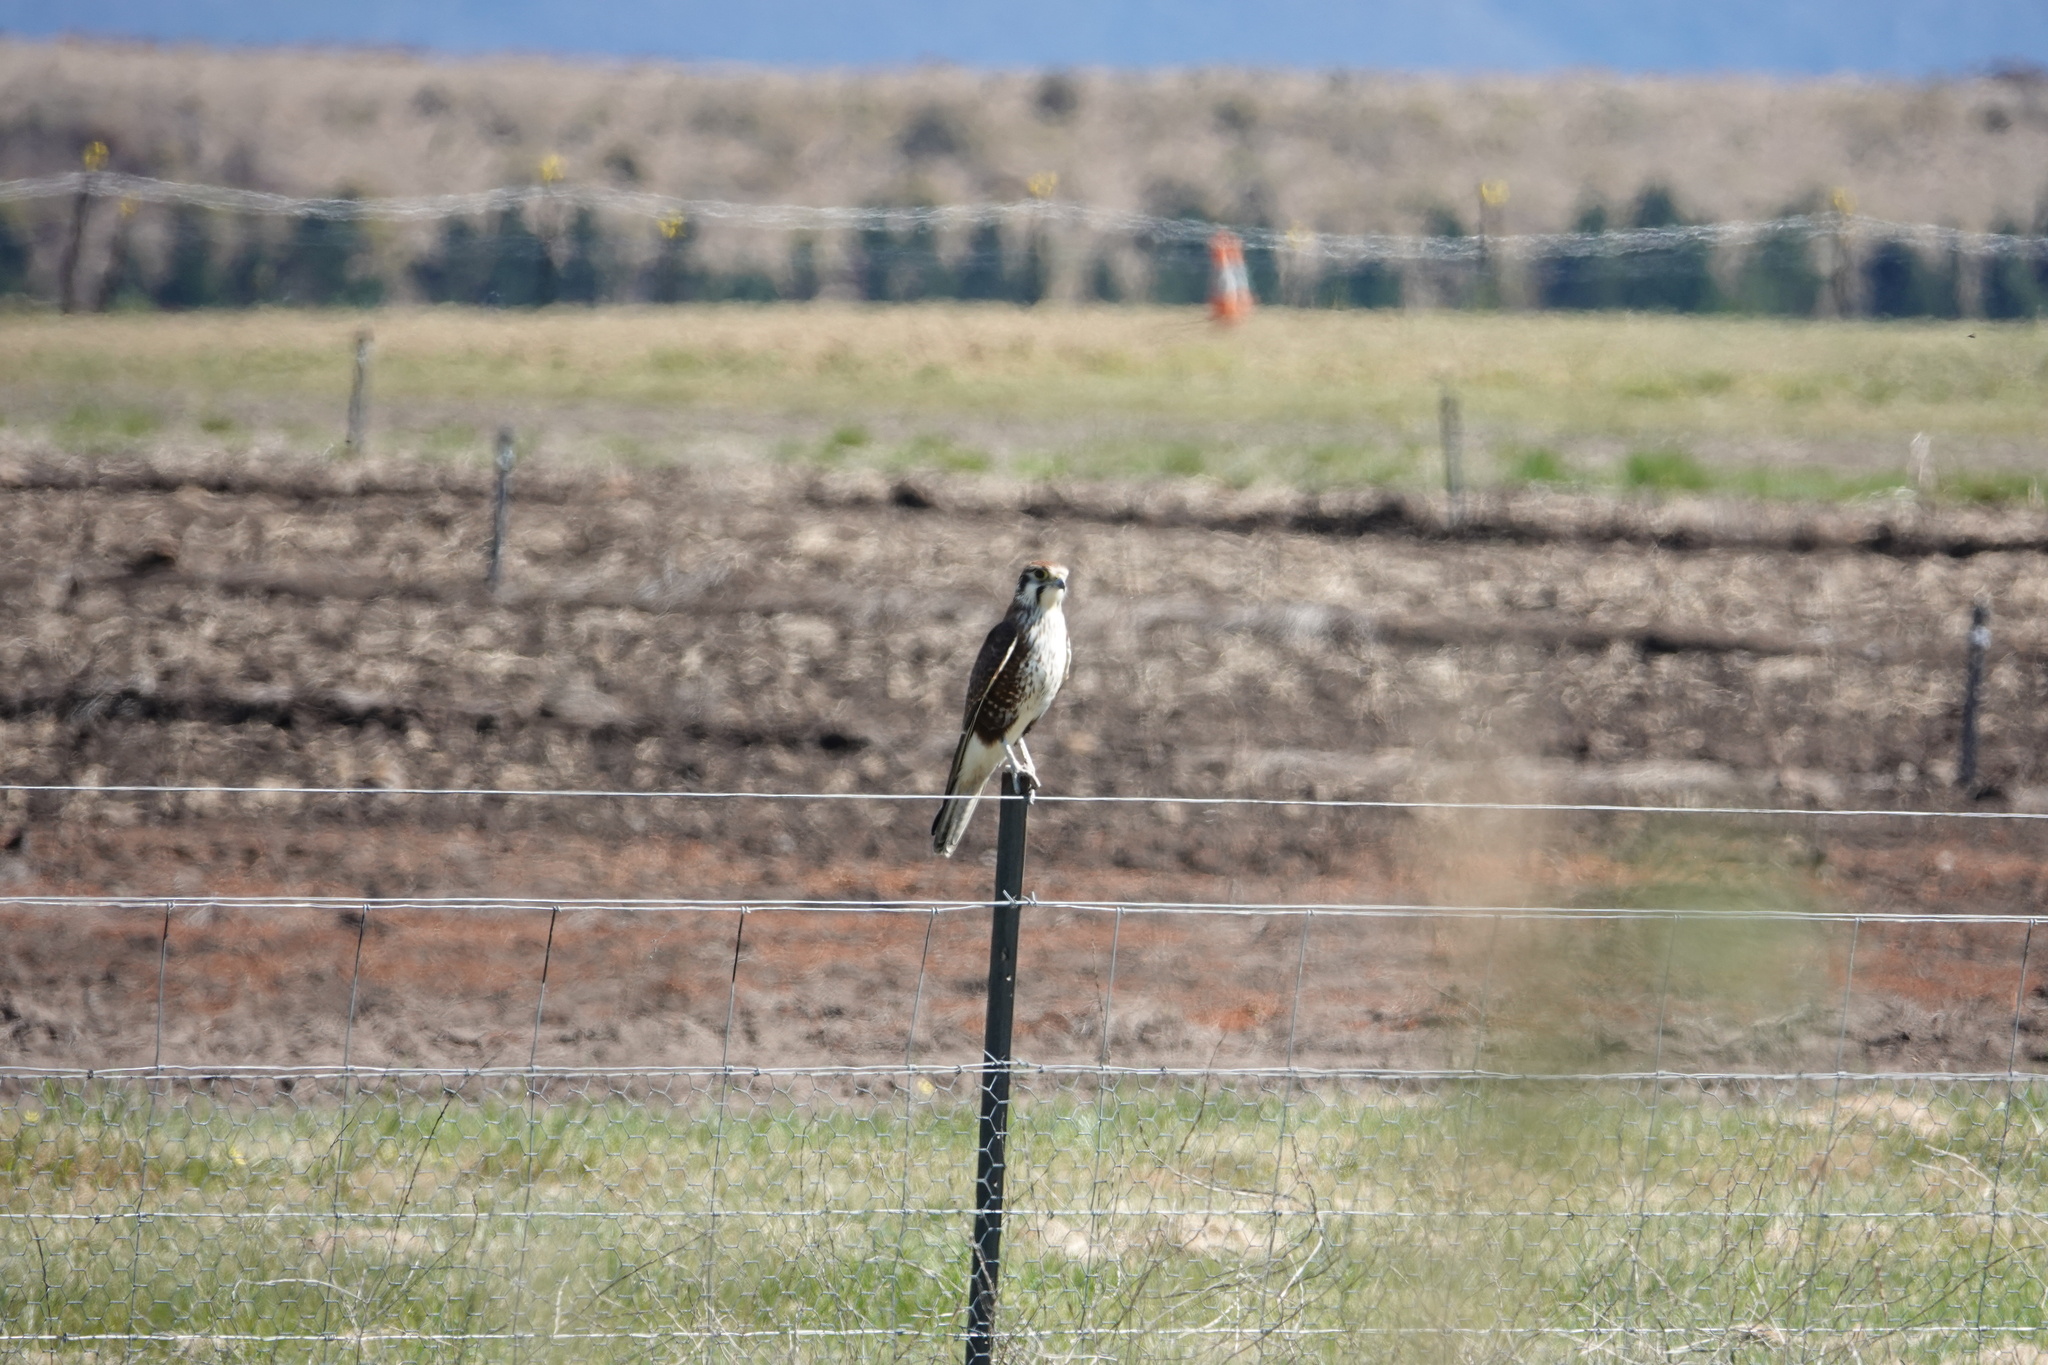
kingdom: Animalia
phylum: Chordata
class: Aves
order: Falconiformes
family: Falconidae
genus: Falco
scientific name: Falco berigora
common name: Brown falcon
